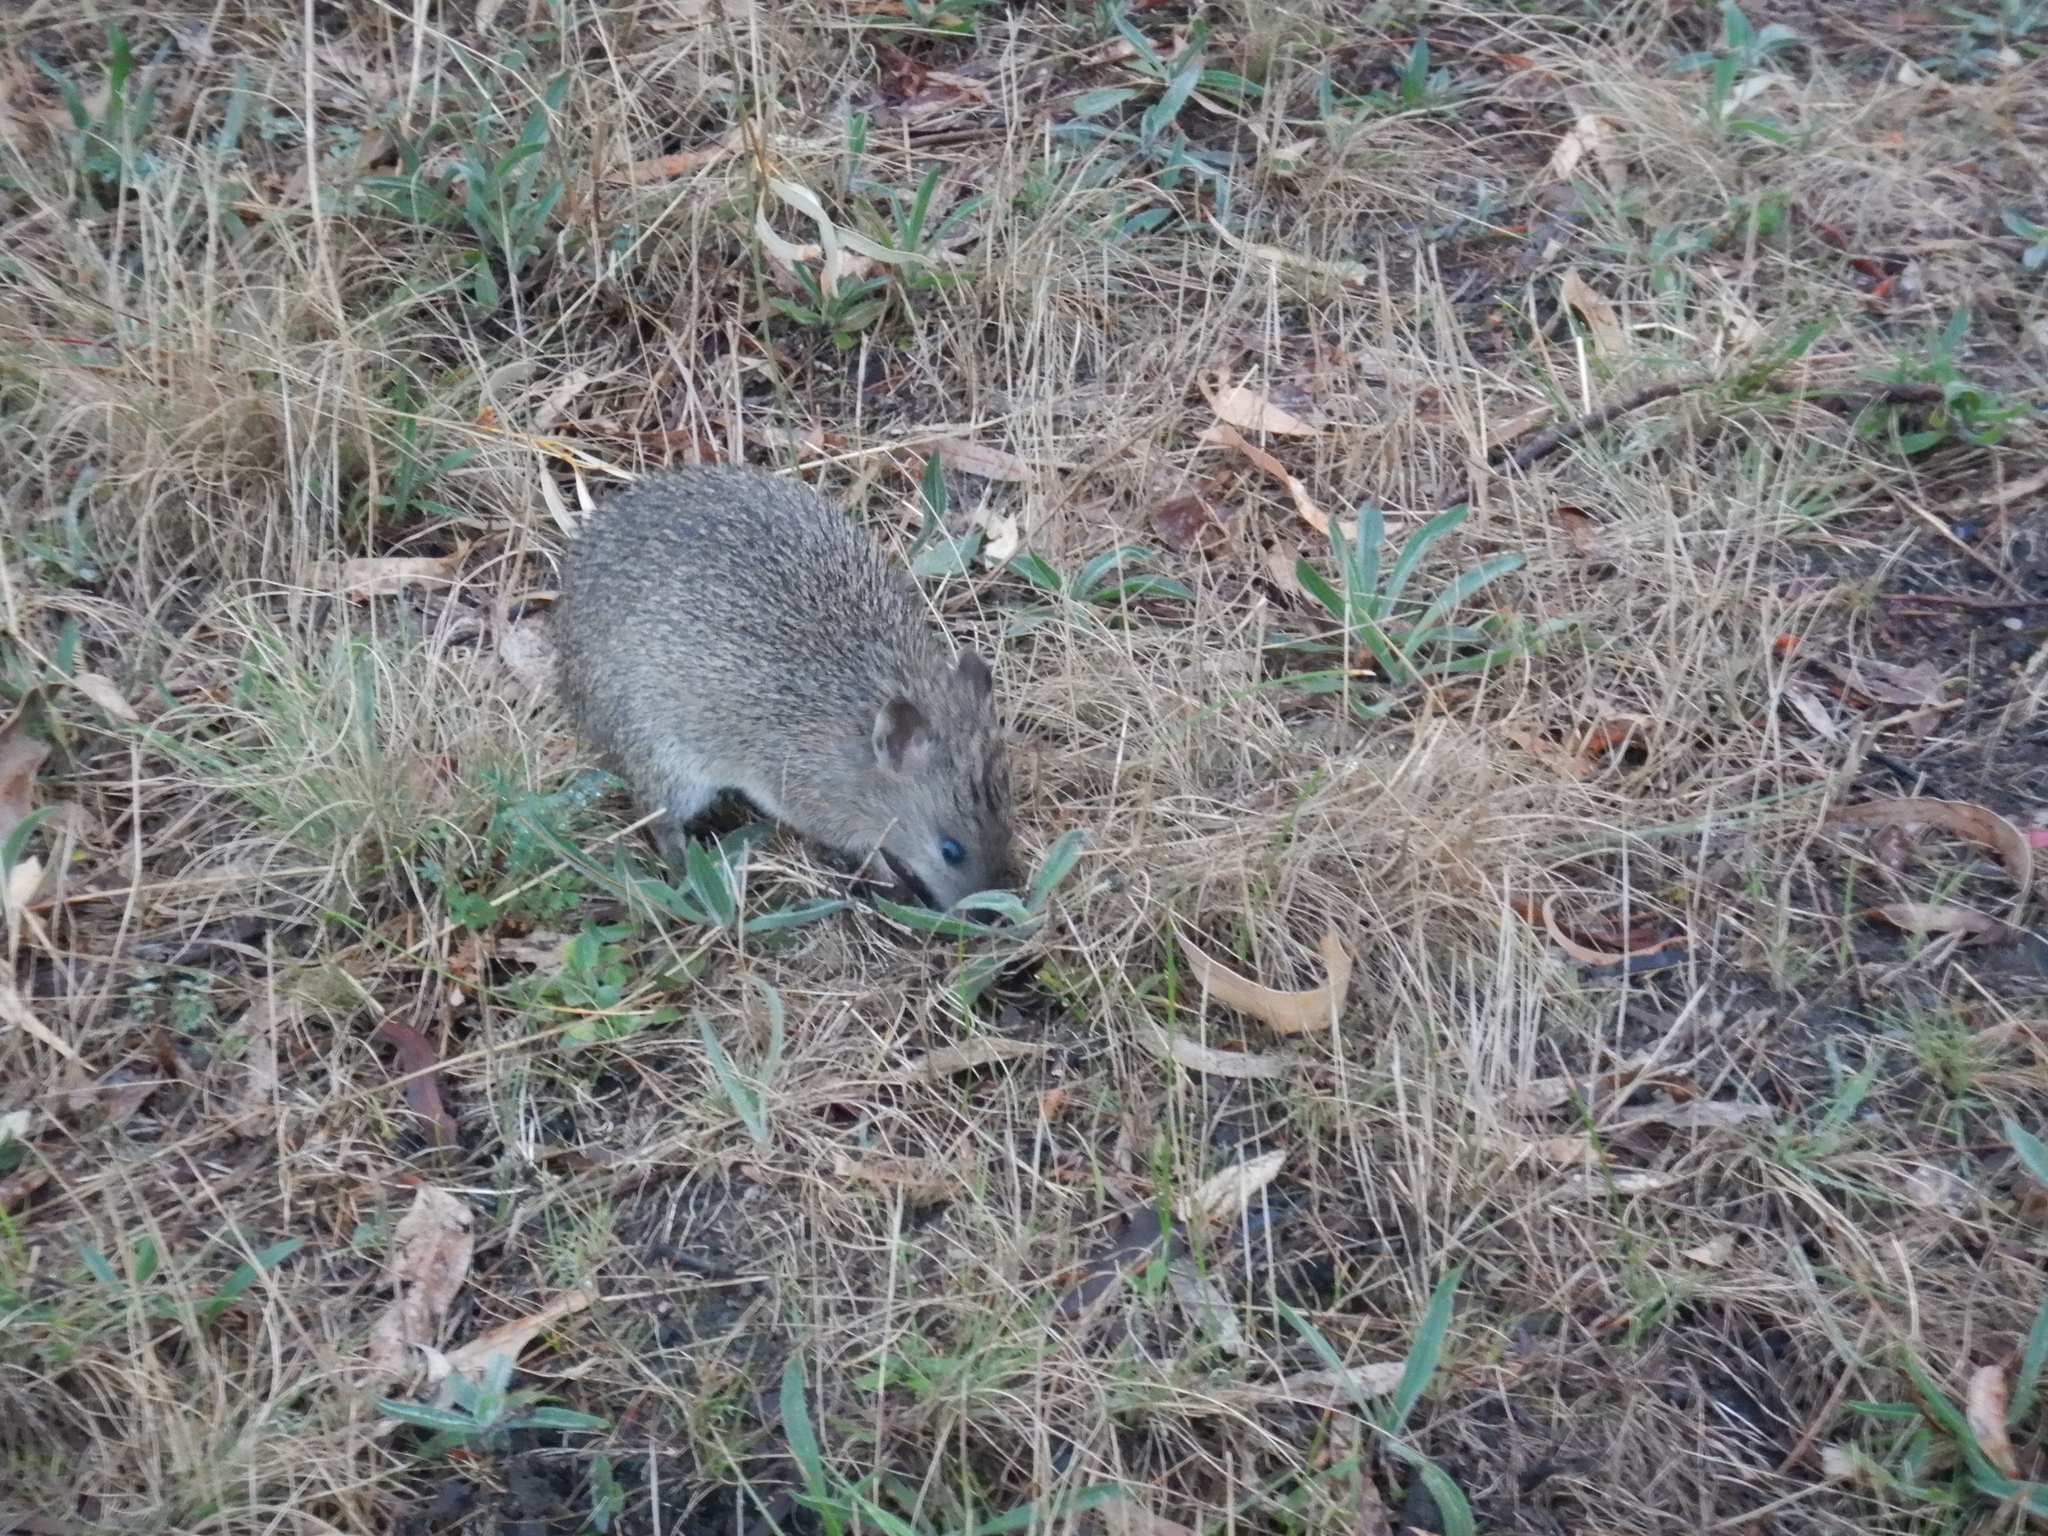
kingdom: Animalia
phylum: Chordata
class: Mammalia
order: Peramelemorphia
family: Peramelidae
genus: Isoodon
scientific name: Isoodon obesulus
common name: Southern brown bandicoot
